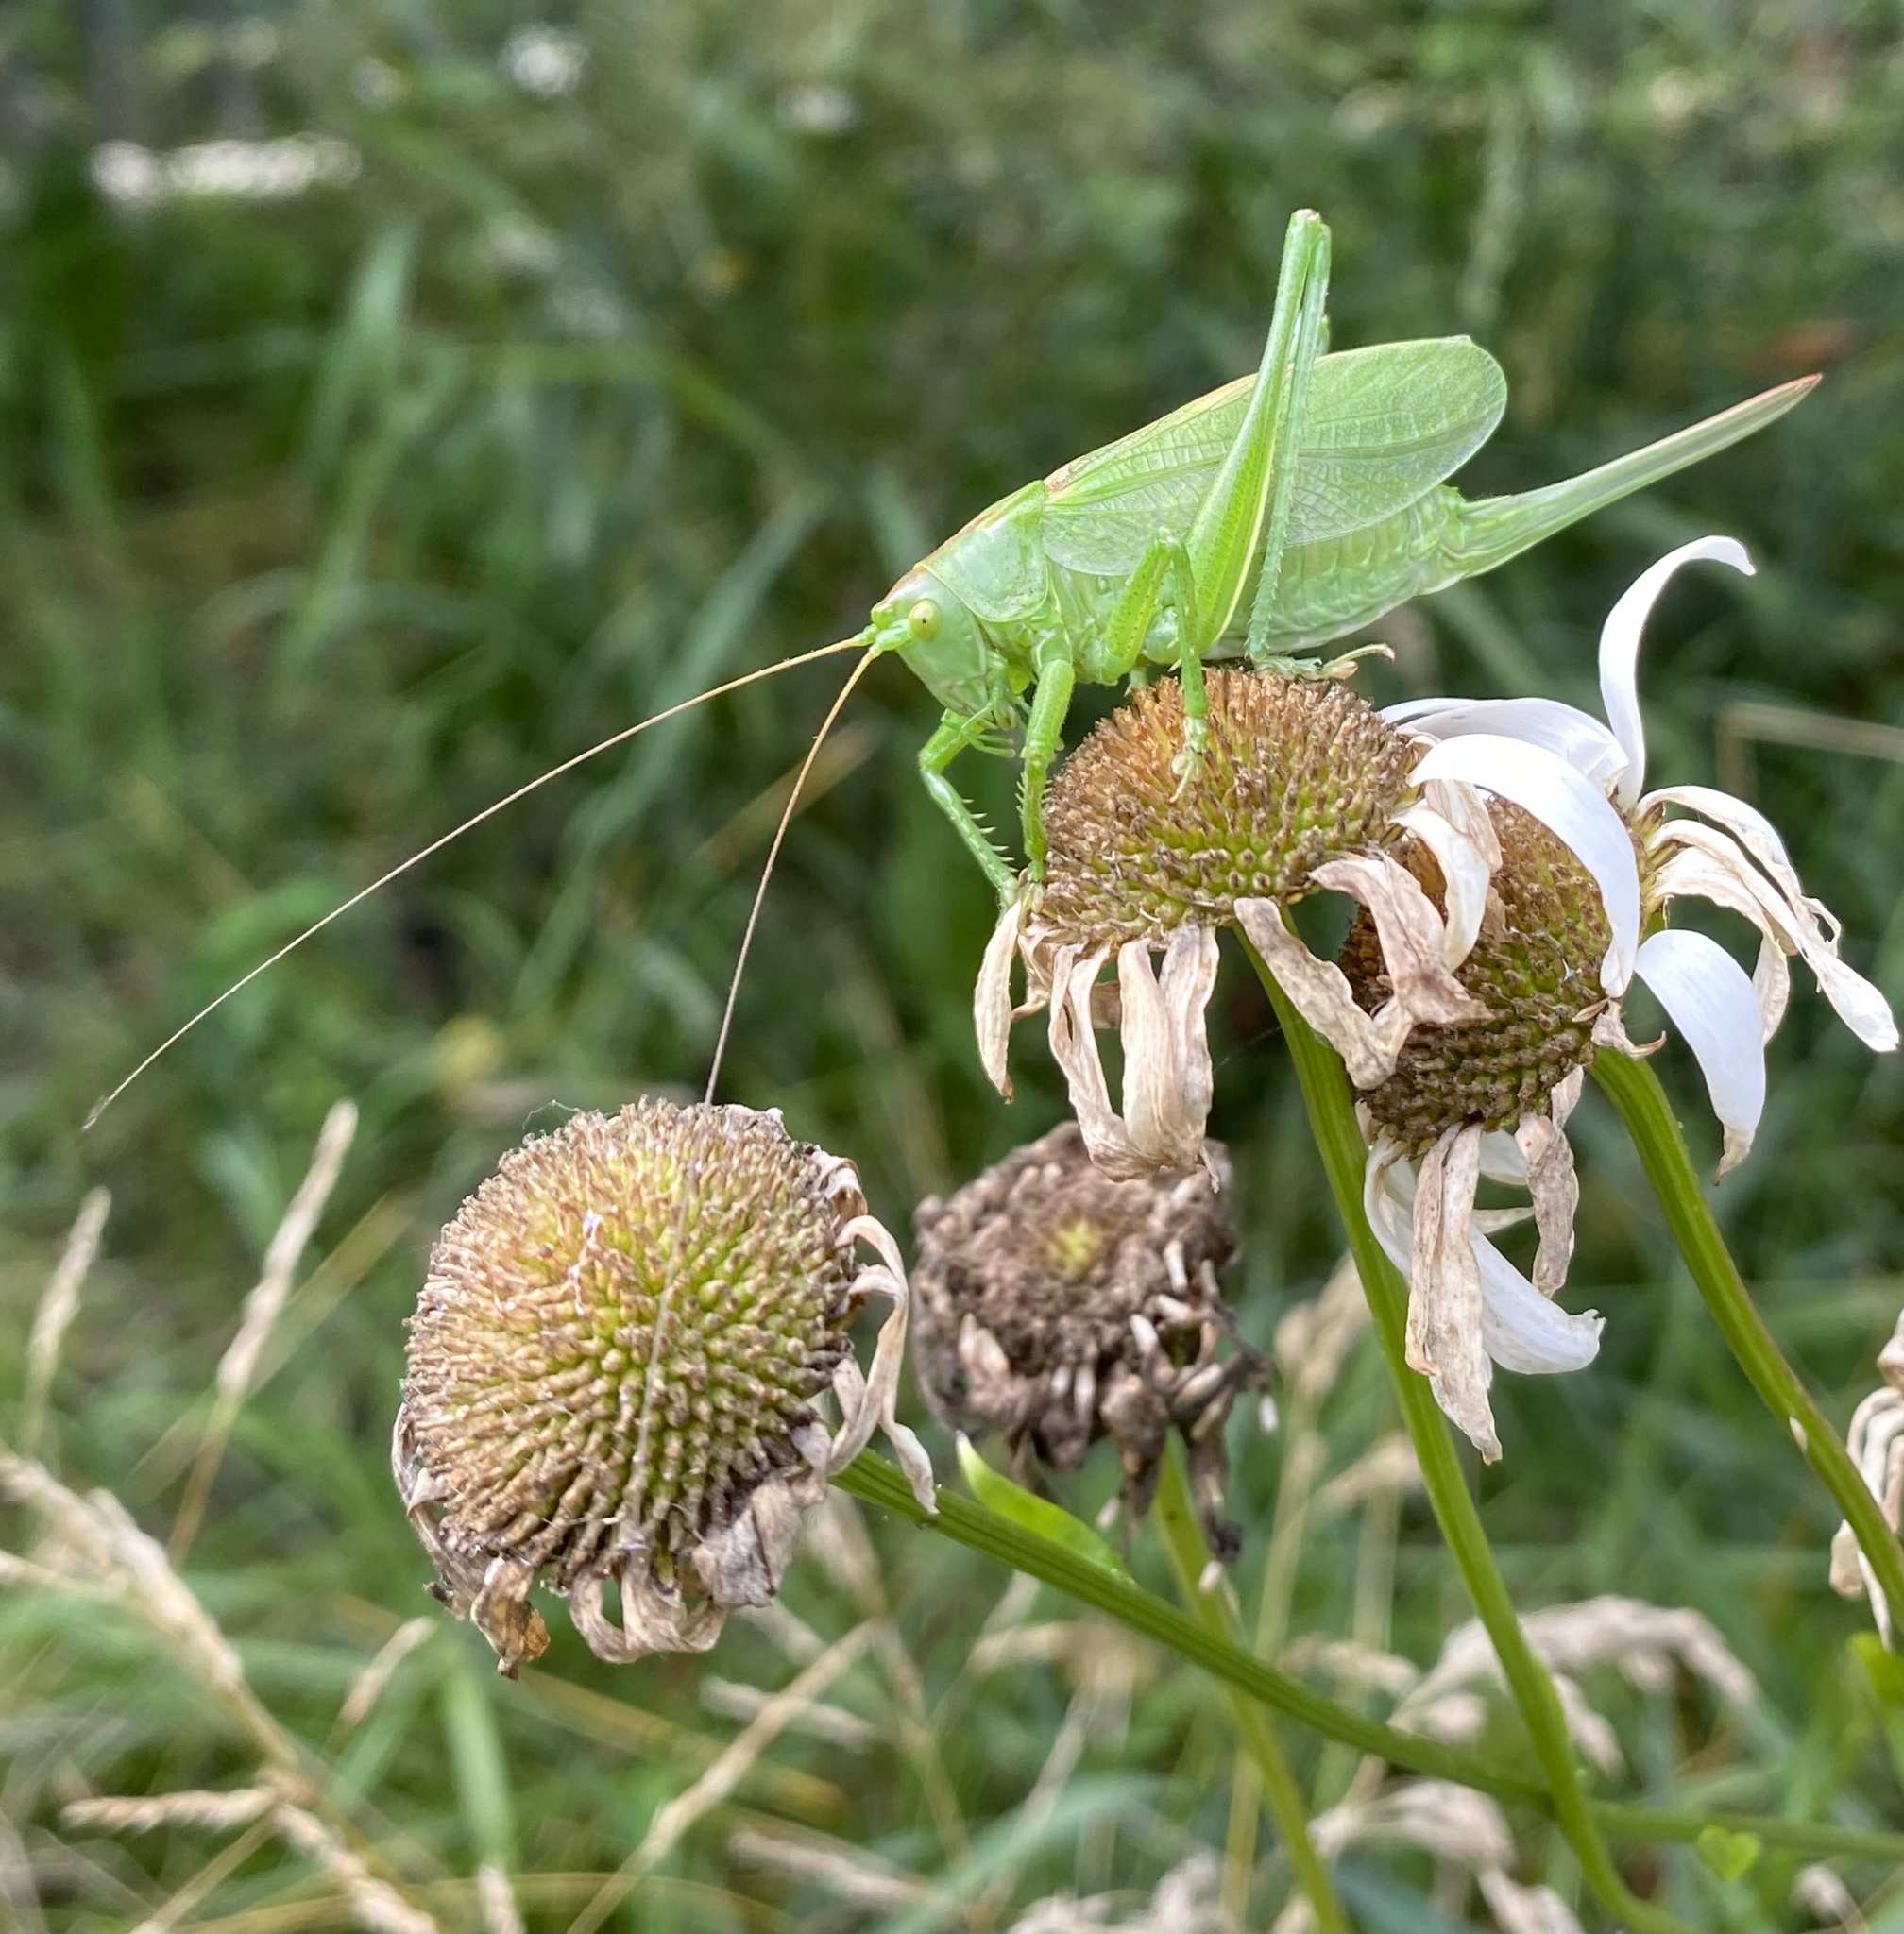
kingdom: Animalia
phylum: Arthropoda
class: Insecta
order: Orthoptera
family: Tettigoniidae
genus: Tettigonia
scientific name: Tettigonia cantans
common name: Upland green bush-cricket
